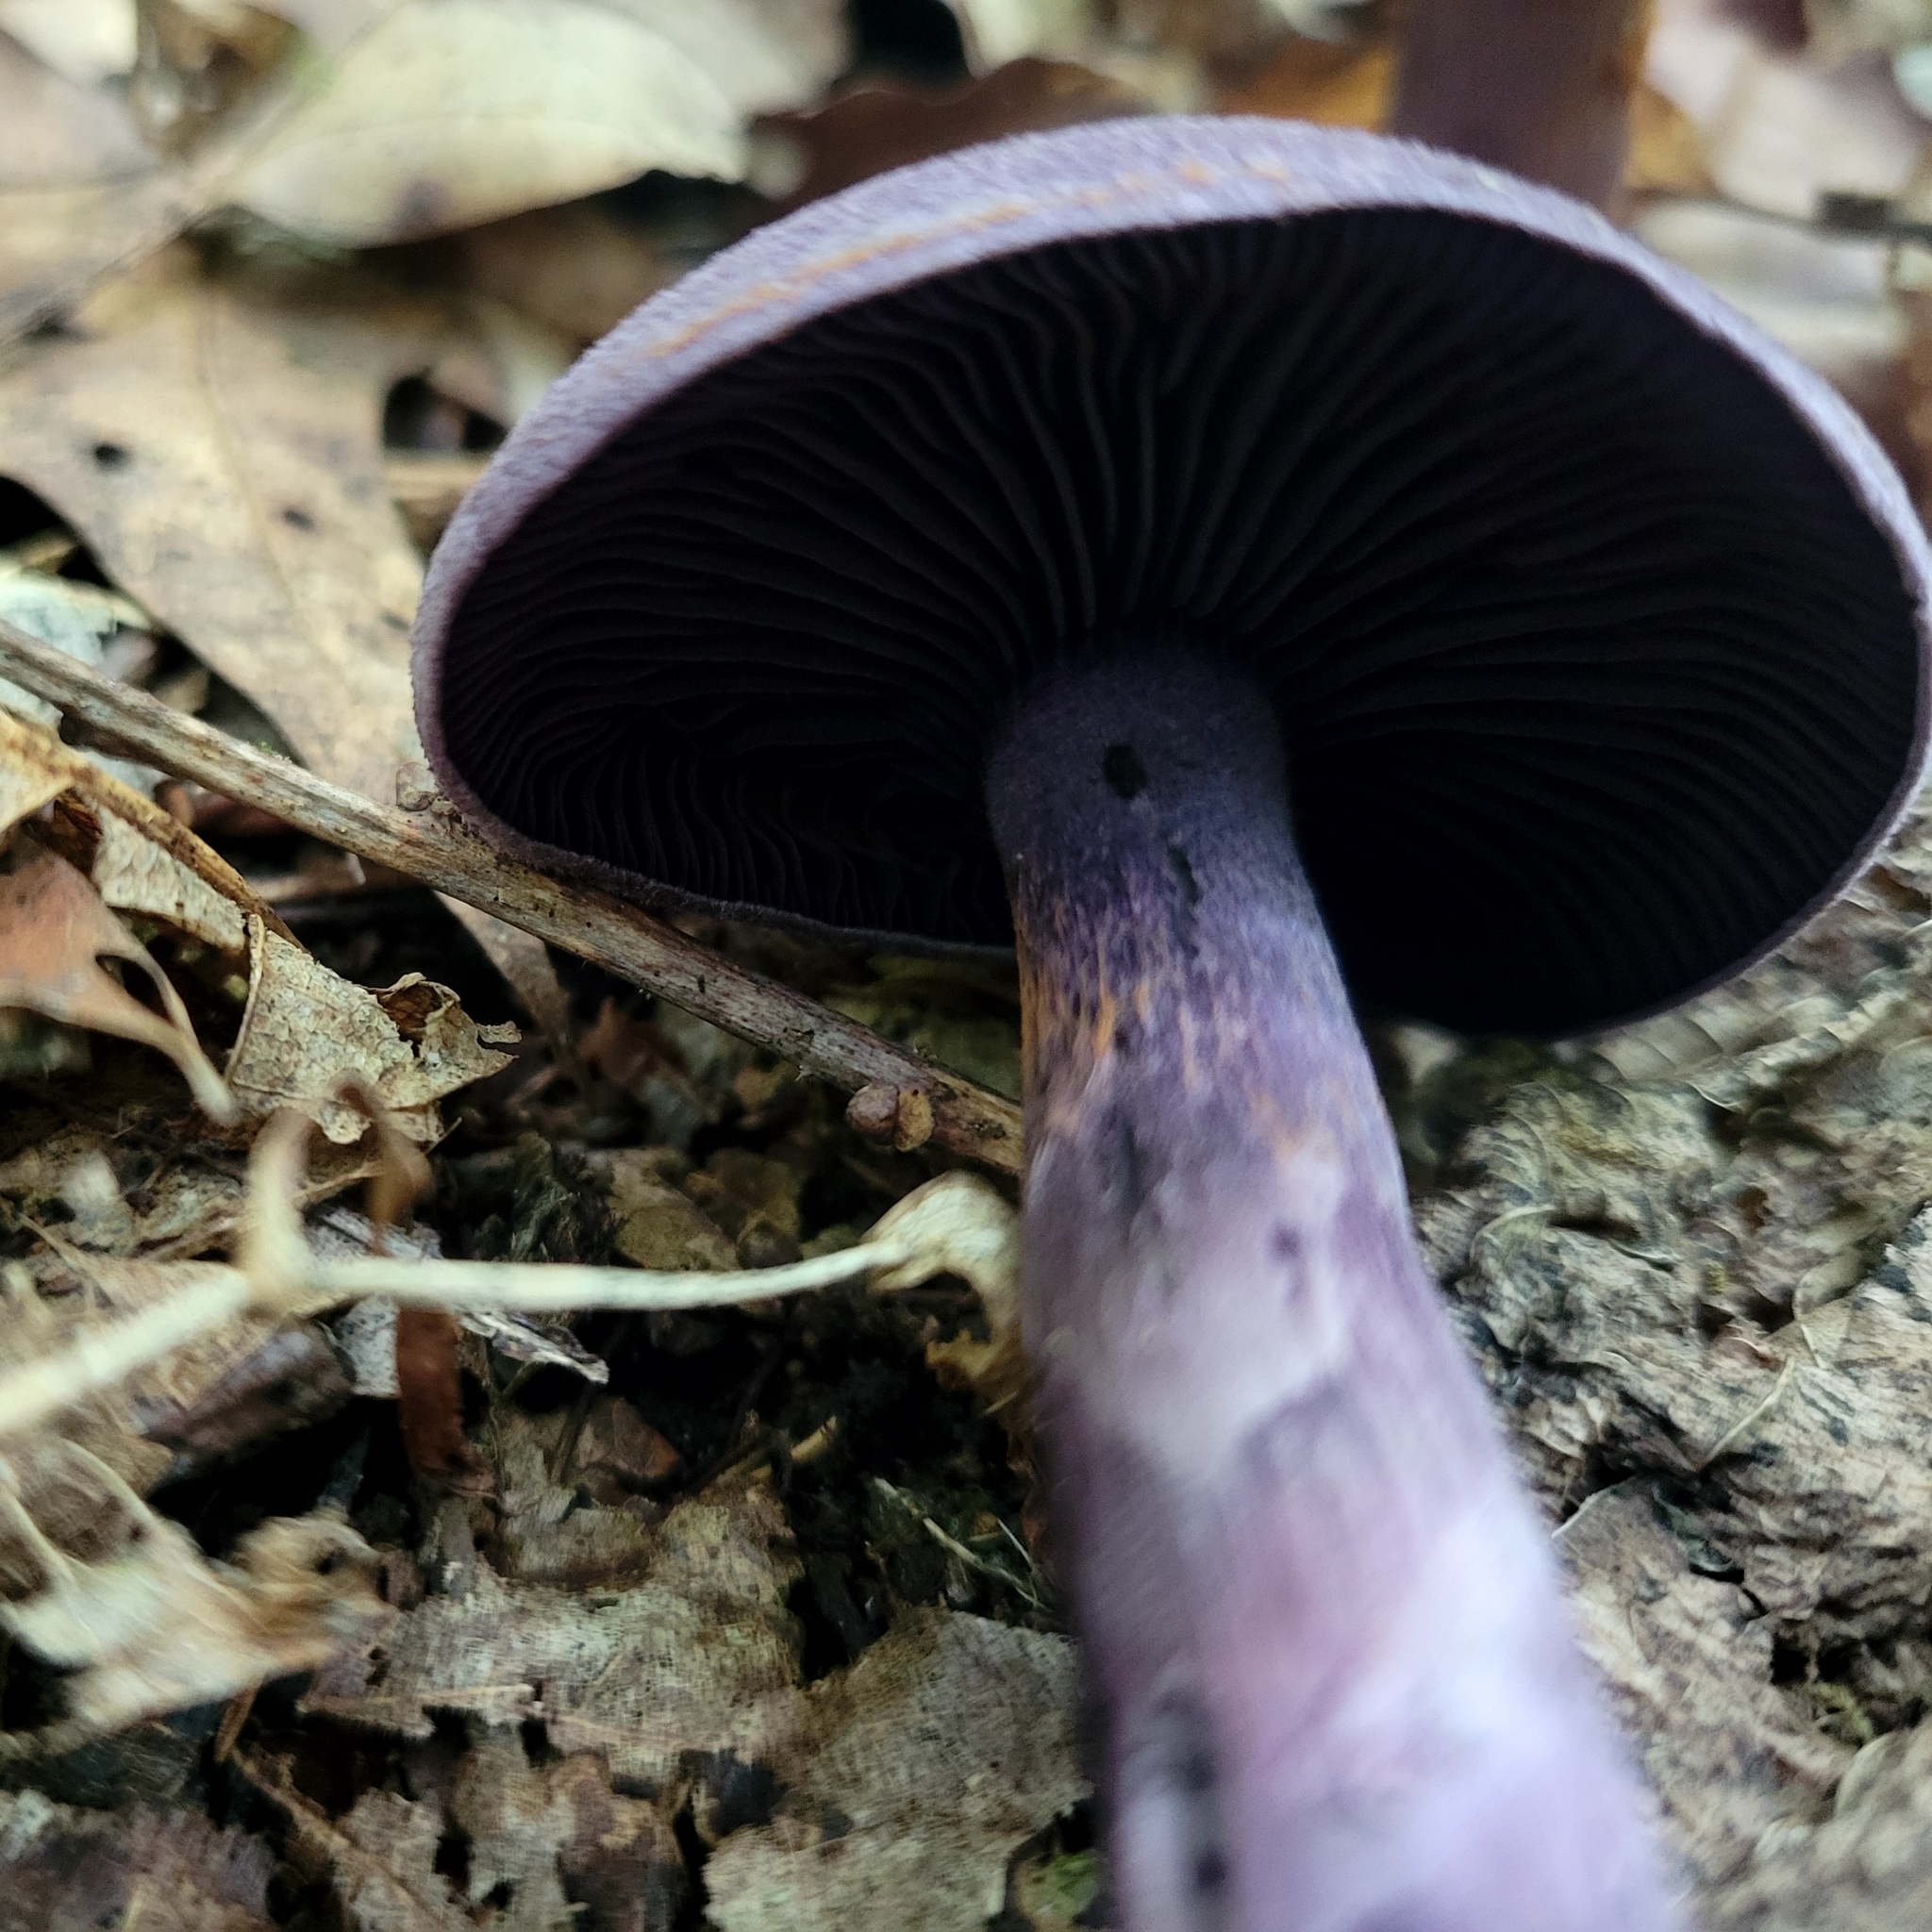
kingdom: Fungi
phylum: Basidiomycota
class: Agaricomycetes
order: Agaricales
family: Cortinariaceae
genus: Cortinarius
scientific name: Cortinarius violaceus
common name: Violet webcap
